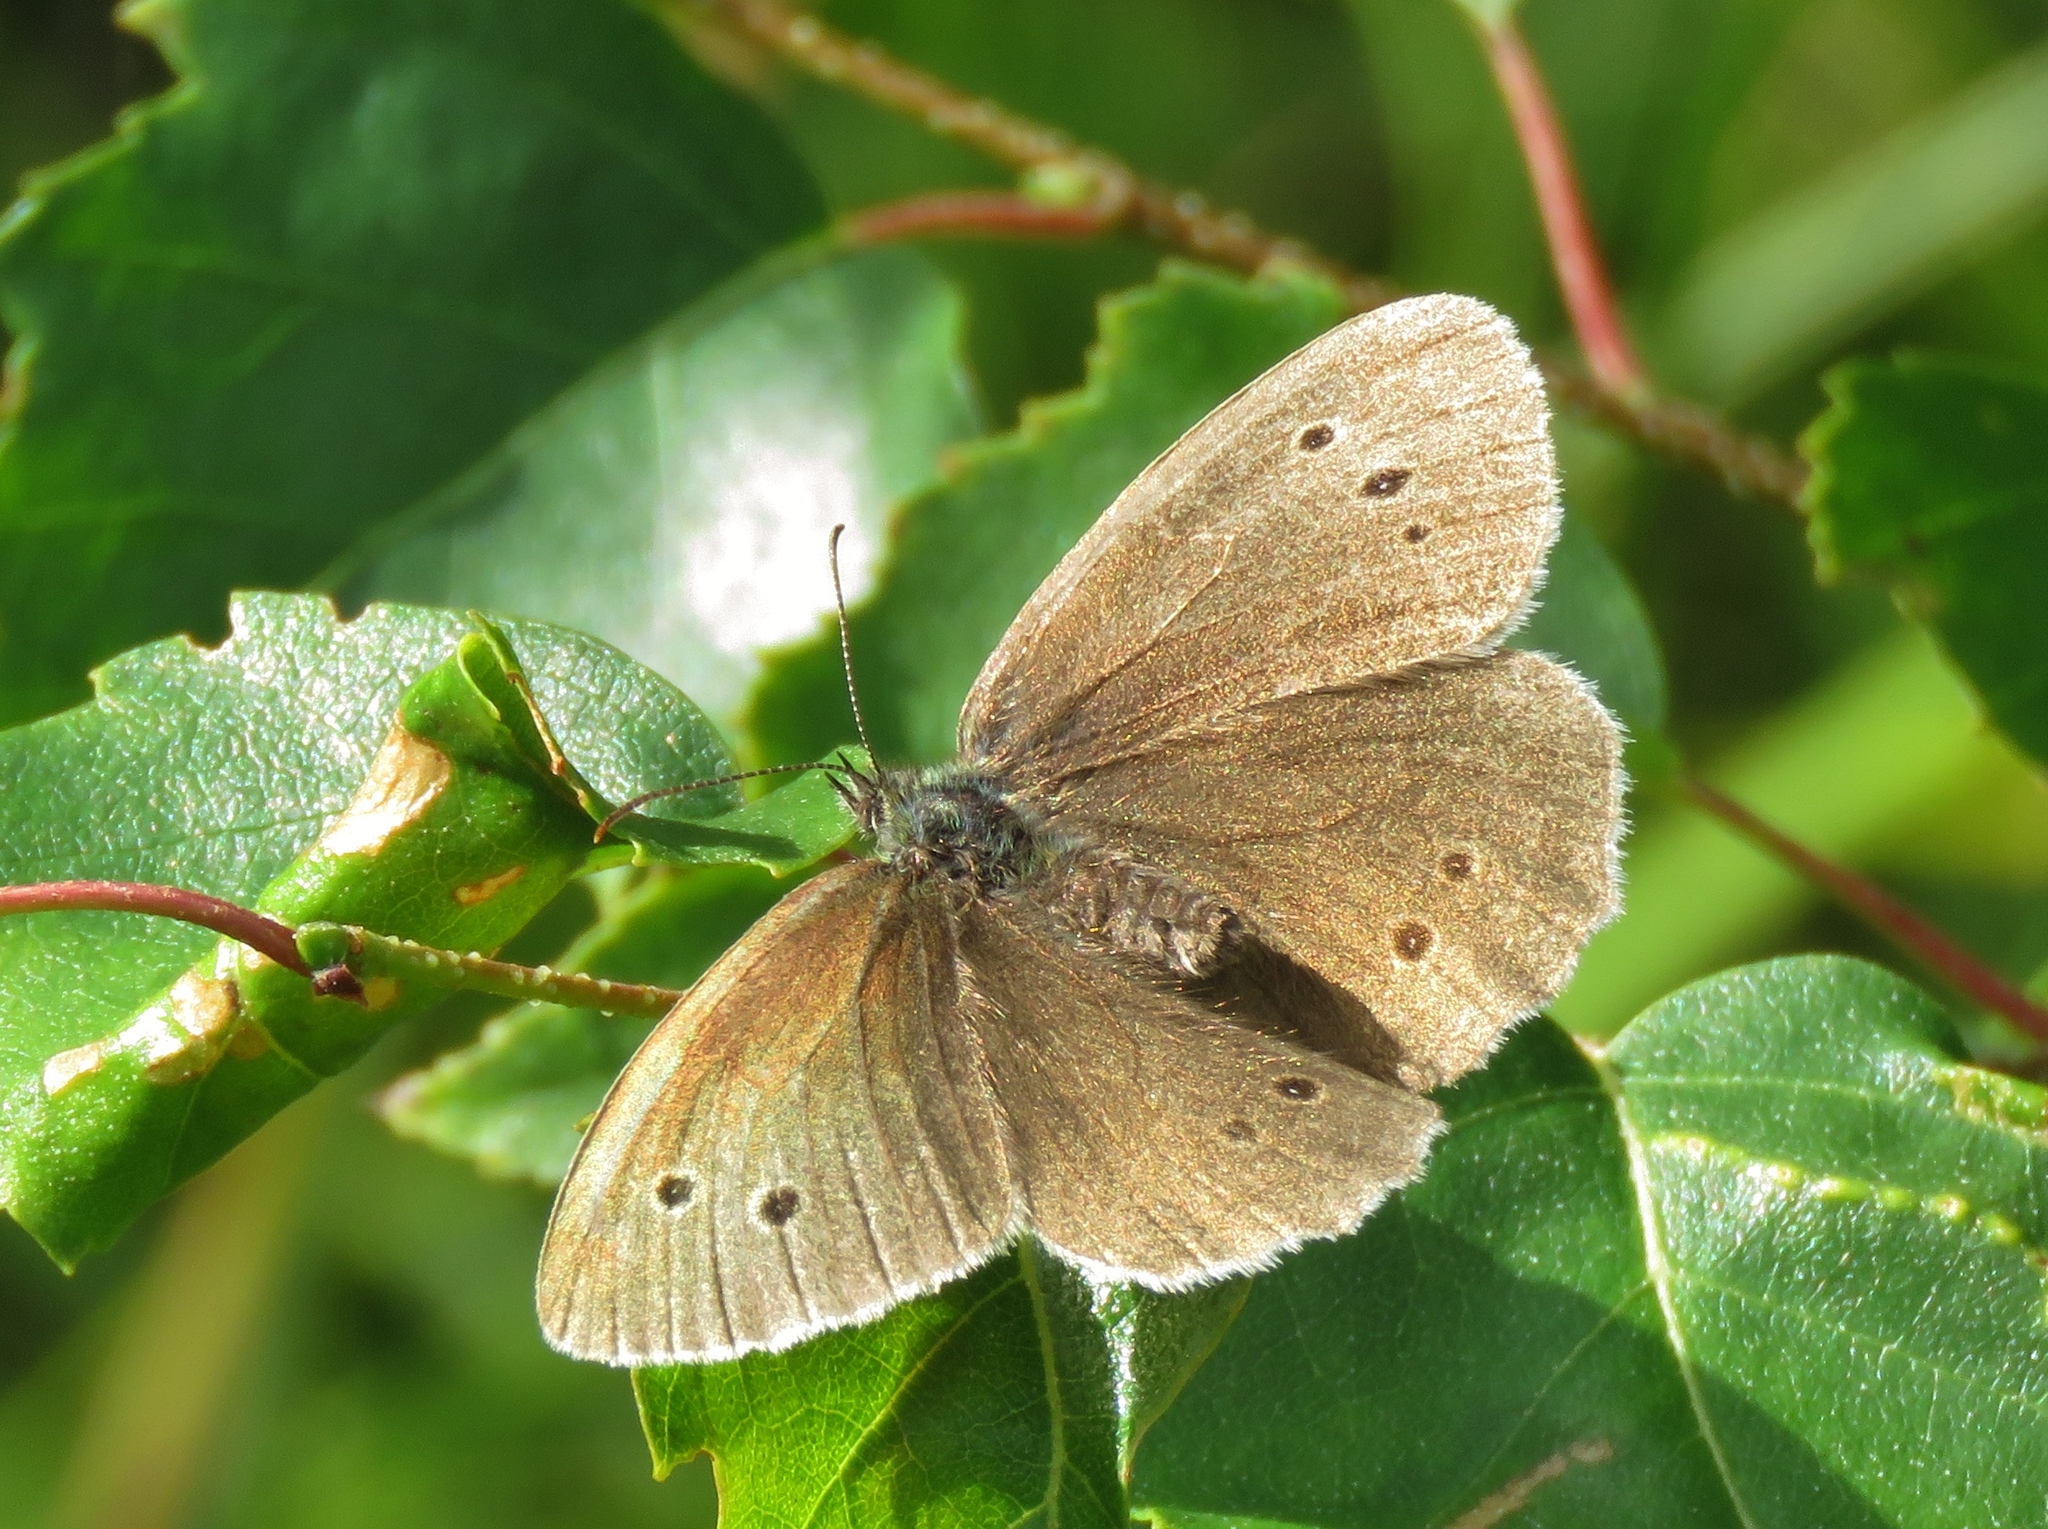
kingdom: Animalia
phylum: Arthropoda
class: Insecta
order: Lepidoptera
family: Nymphalidae
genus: Aphantopus
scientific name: Aphantopus hyperantus
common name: Ringlet
